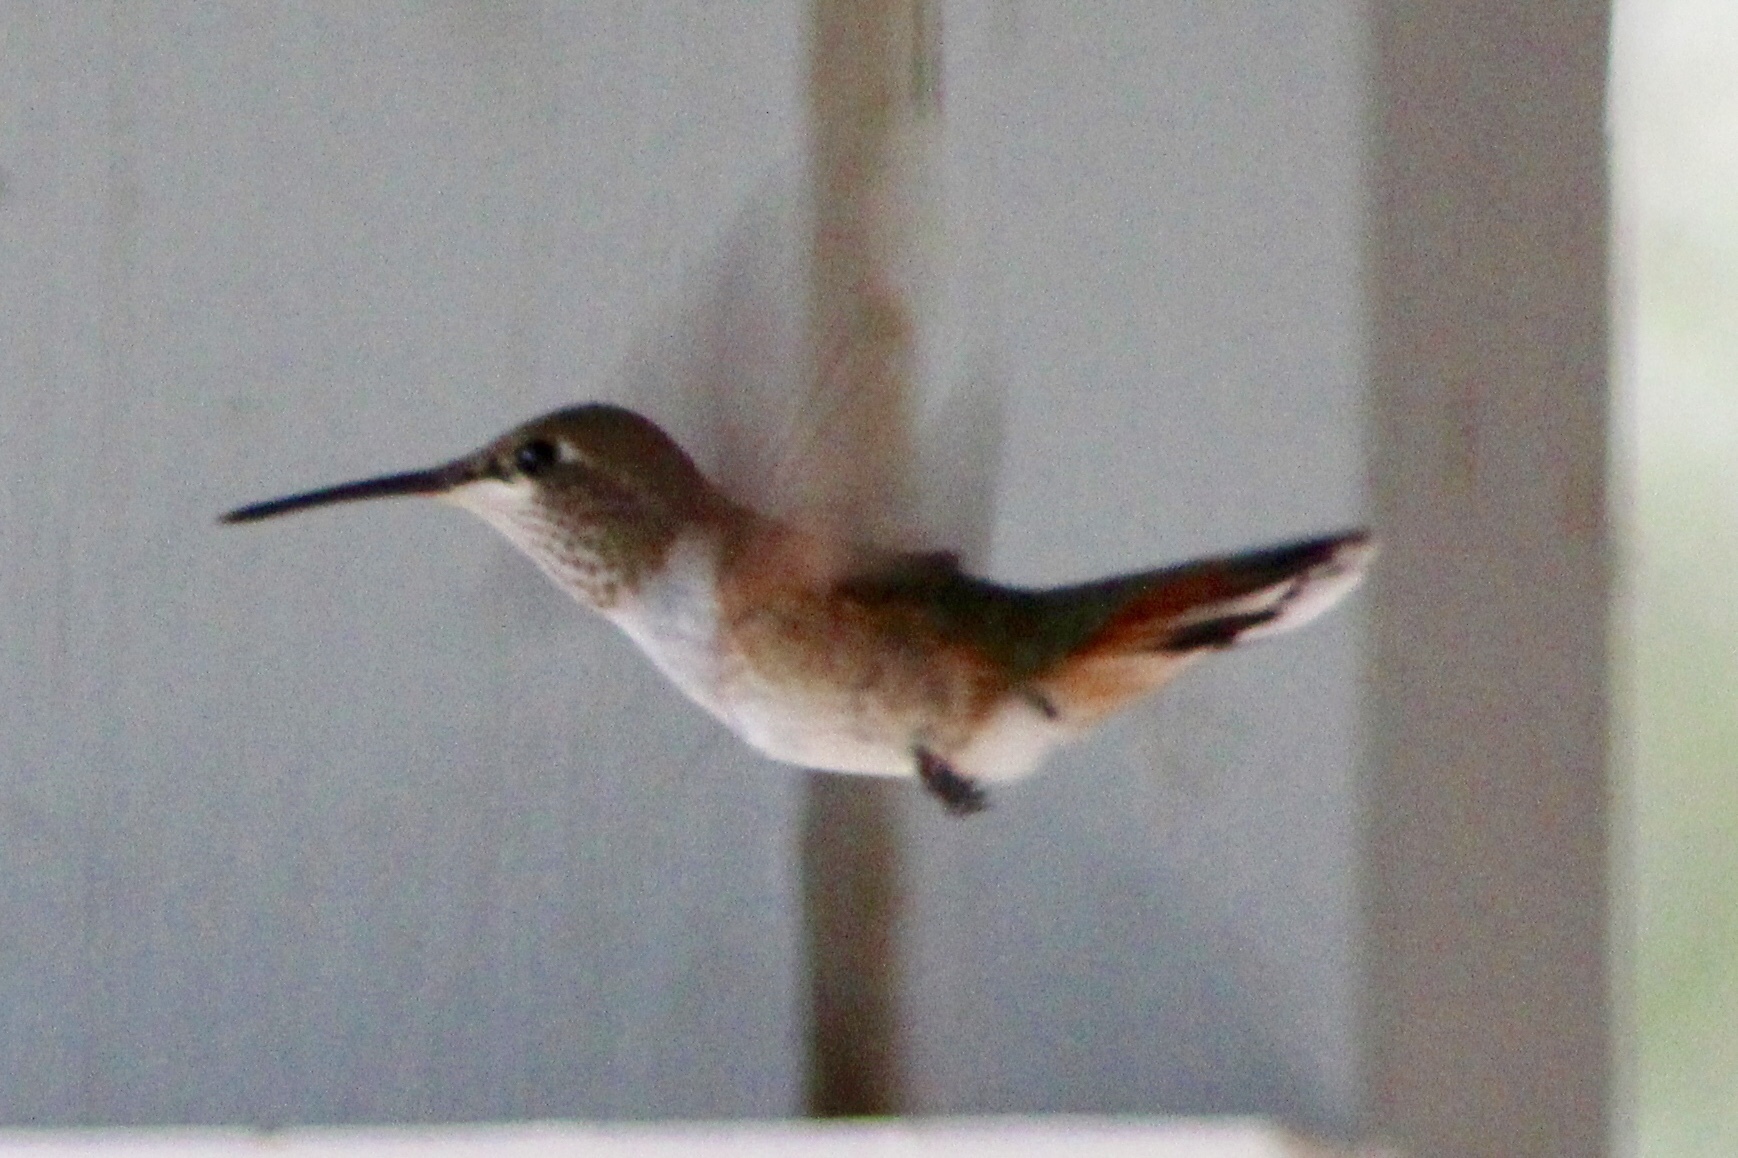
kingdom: Animalia
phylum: Chordata
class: Aves
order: Apodiformes
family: Trochilidae
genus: Selasphorus
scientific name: Selasphorus platycercus
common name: Broad-tailed hummingbird
